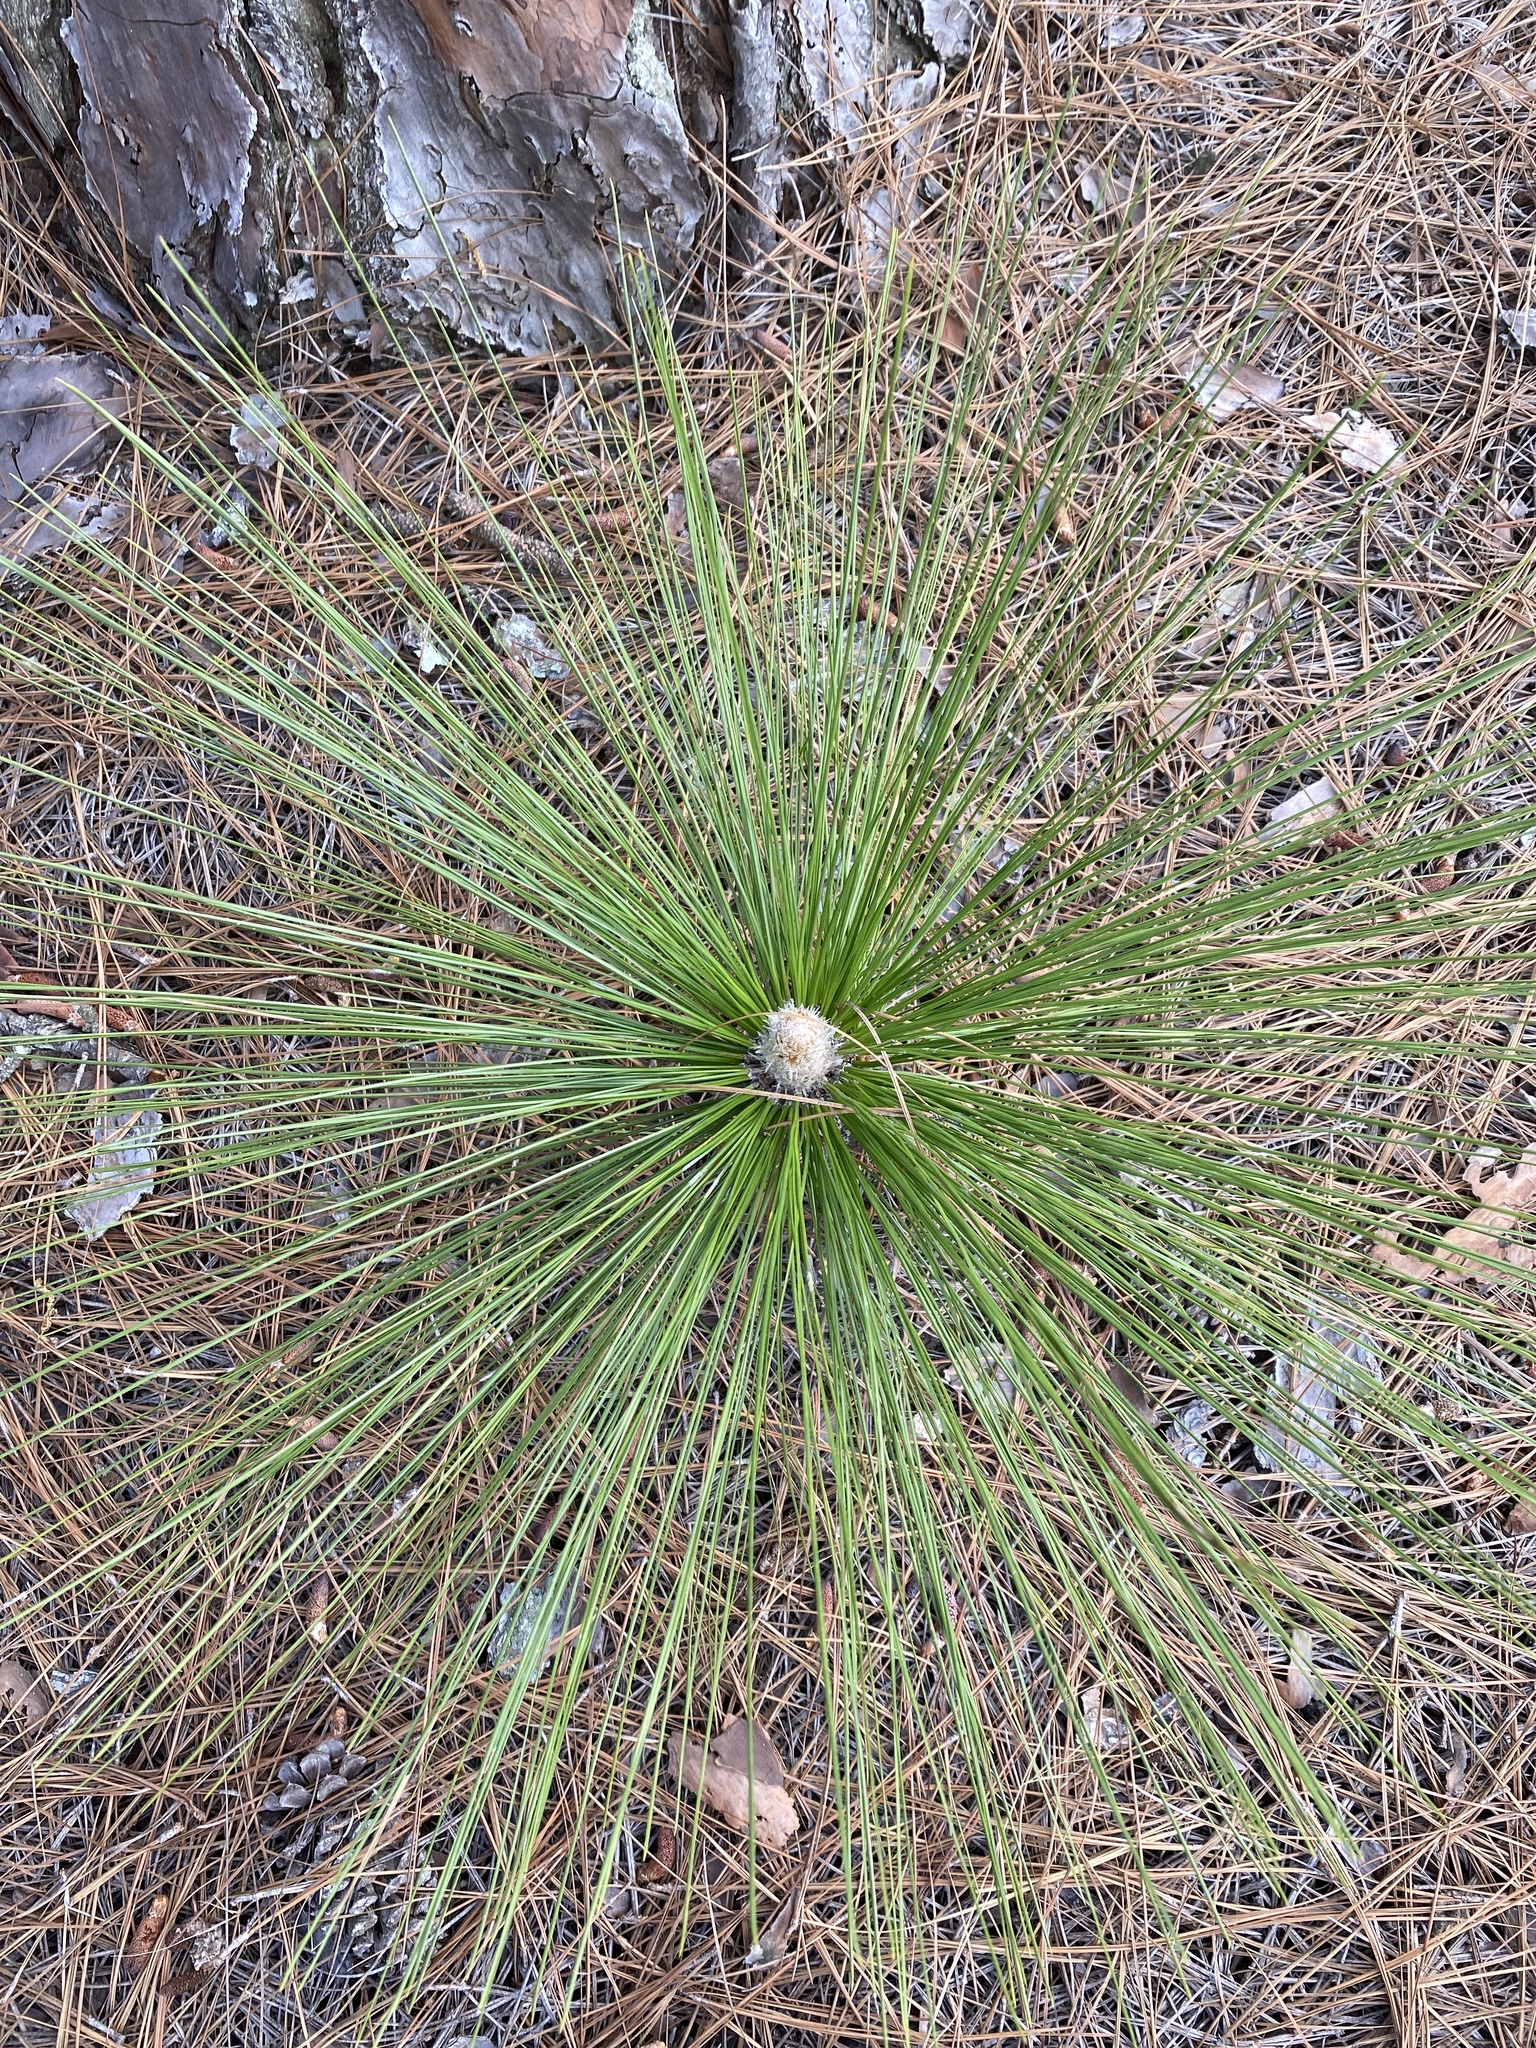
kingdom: Plantae
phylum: Tracheophyta
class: Pinopsida
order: Pinales
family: Pinaceae
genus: Pinus
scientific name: Pinus palustris
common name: Longleaf pine
